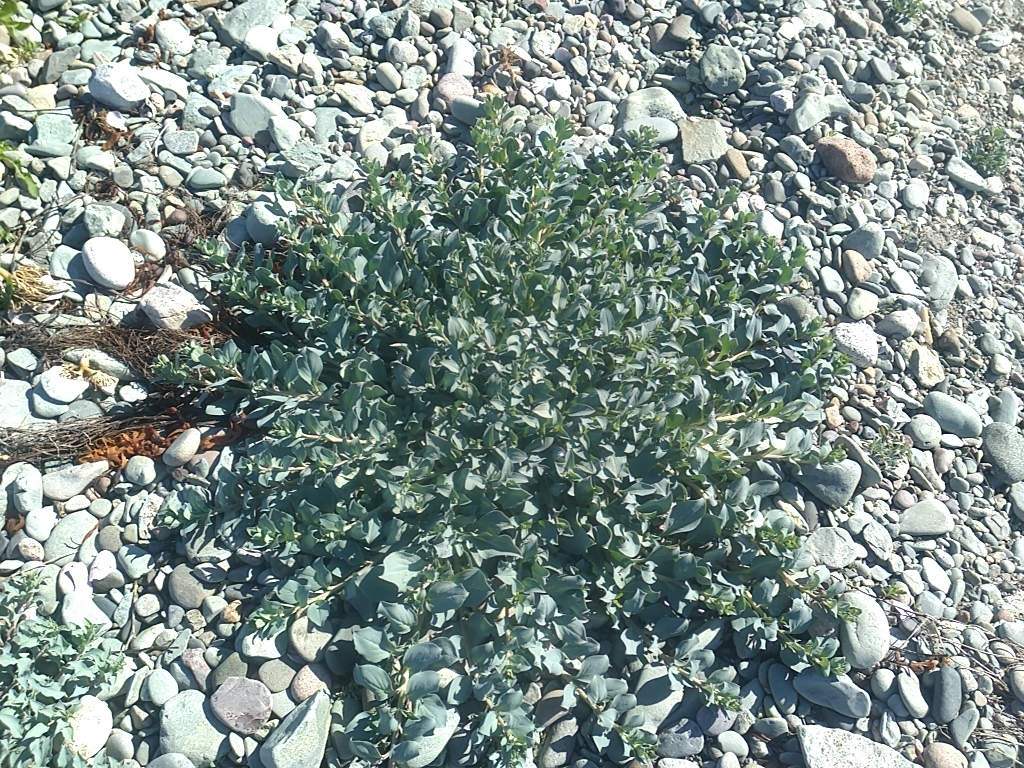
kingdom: Plantae
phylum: Tracheophyta
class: Magnoliopsida
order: Boraginales
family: Boraginaceae
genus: Mertensia
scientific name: Mertensia maritima
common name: Oysterplant
